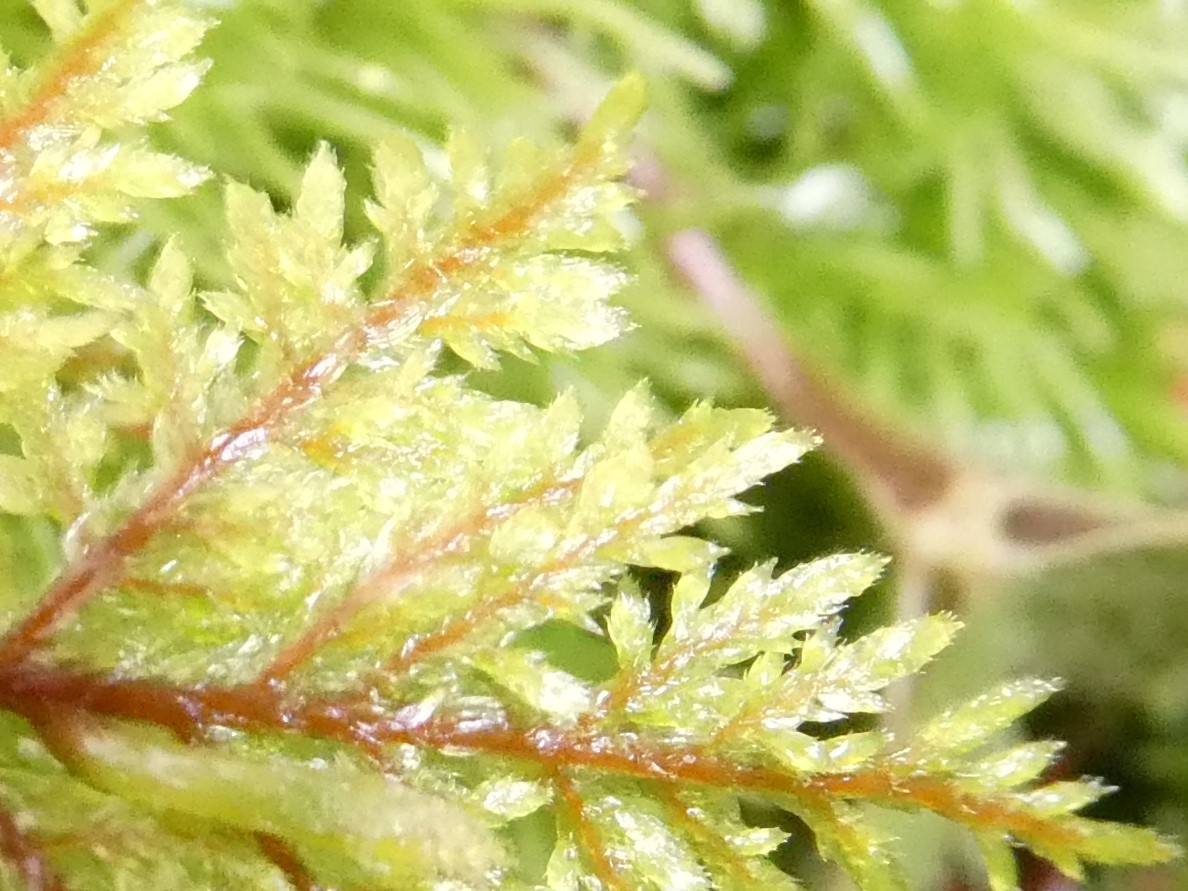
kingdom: Plantae
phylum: Bryophyta
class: Bryopsida
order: Hypnales
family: Hylocomiaceae
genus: Hylocomium
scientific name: Hylocomium splendens
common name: Stairstep moss
